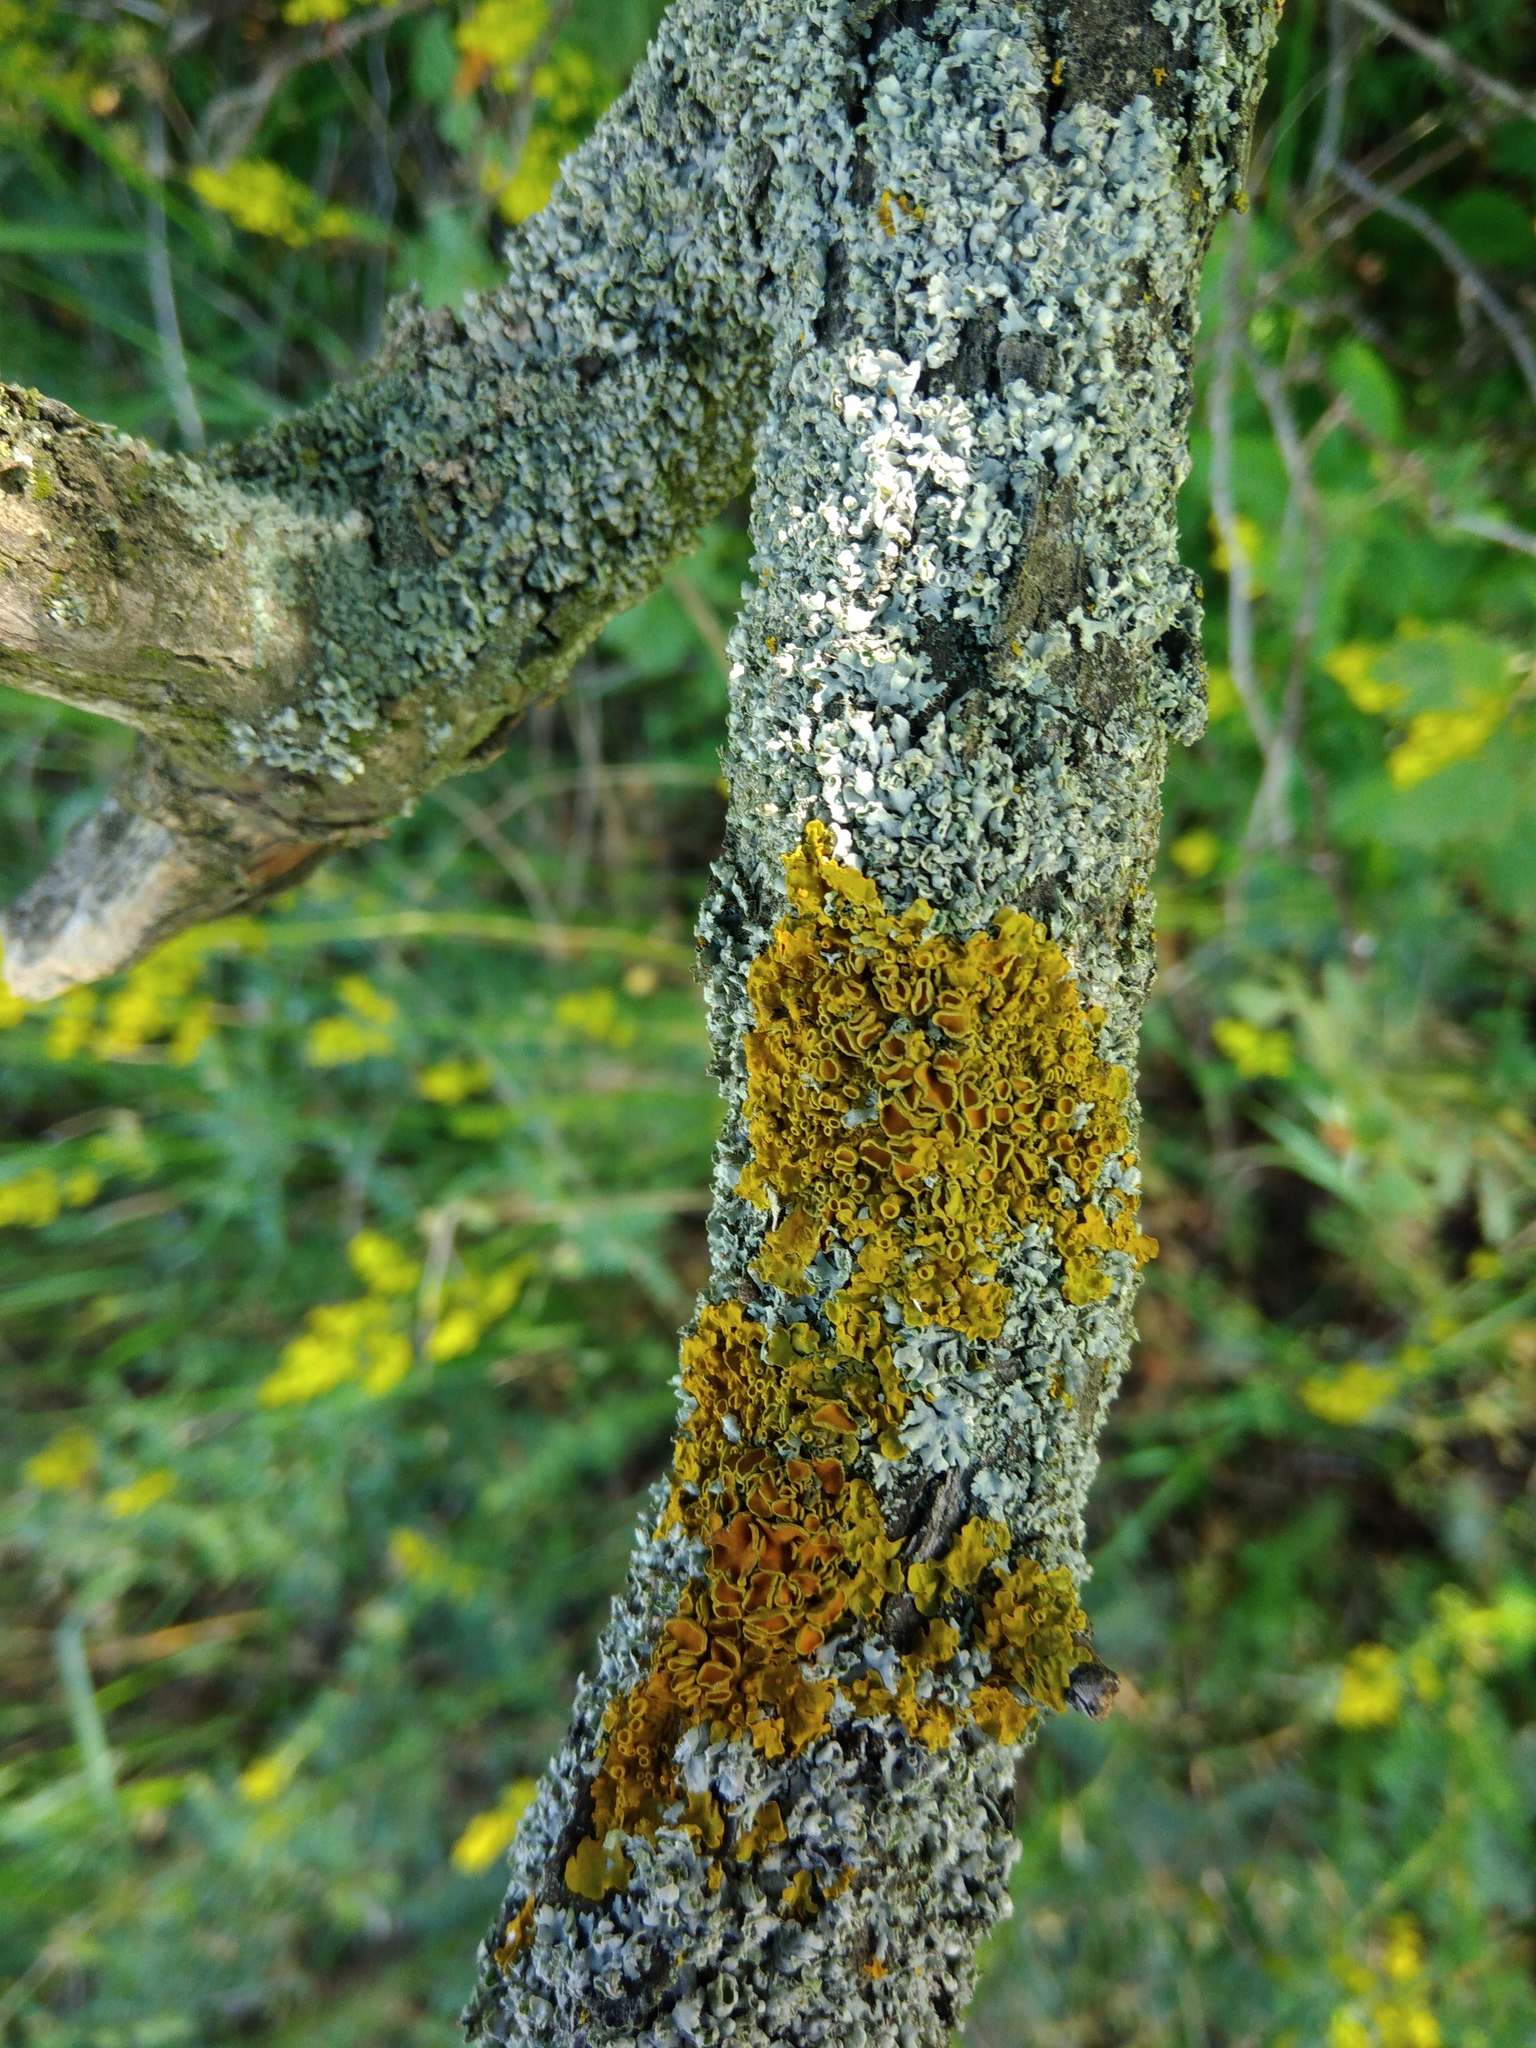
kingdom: Fungi
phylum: Ascomycota
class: Lecanoromycetes
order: Teloschistales
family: Teloschistaceae
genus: Xanthoria
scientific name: Xanthoria parietina
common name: Common orange lichen
